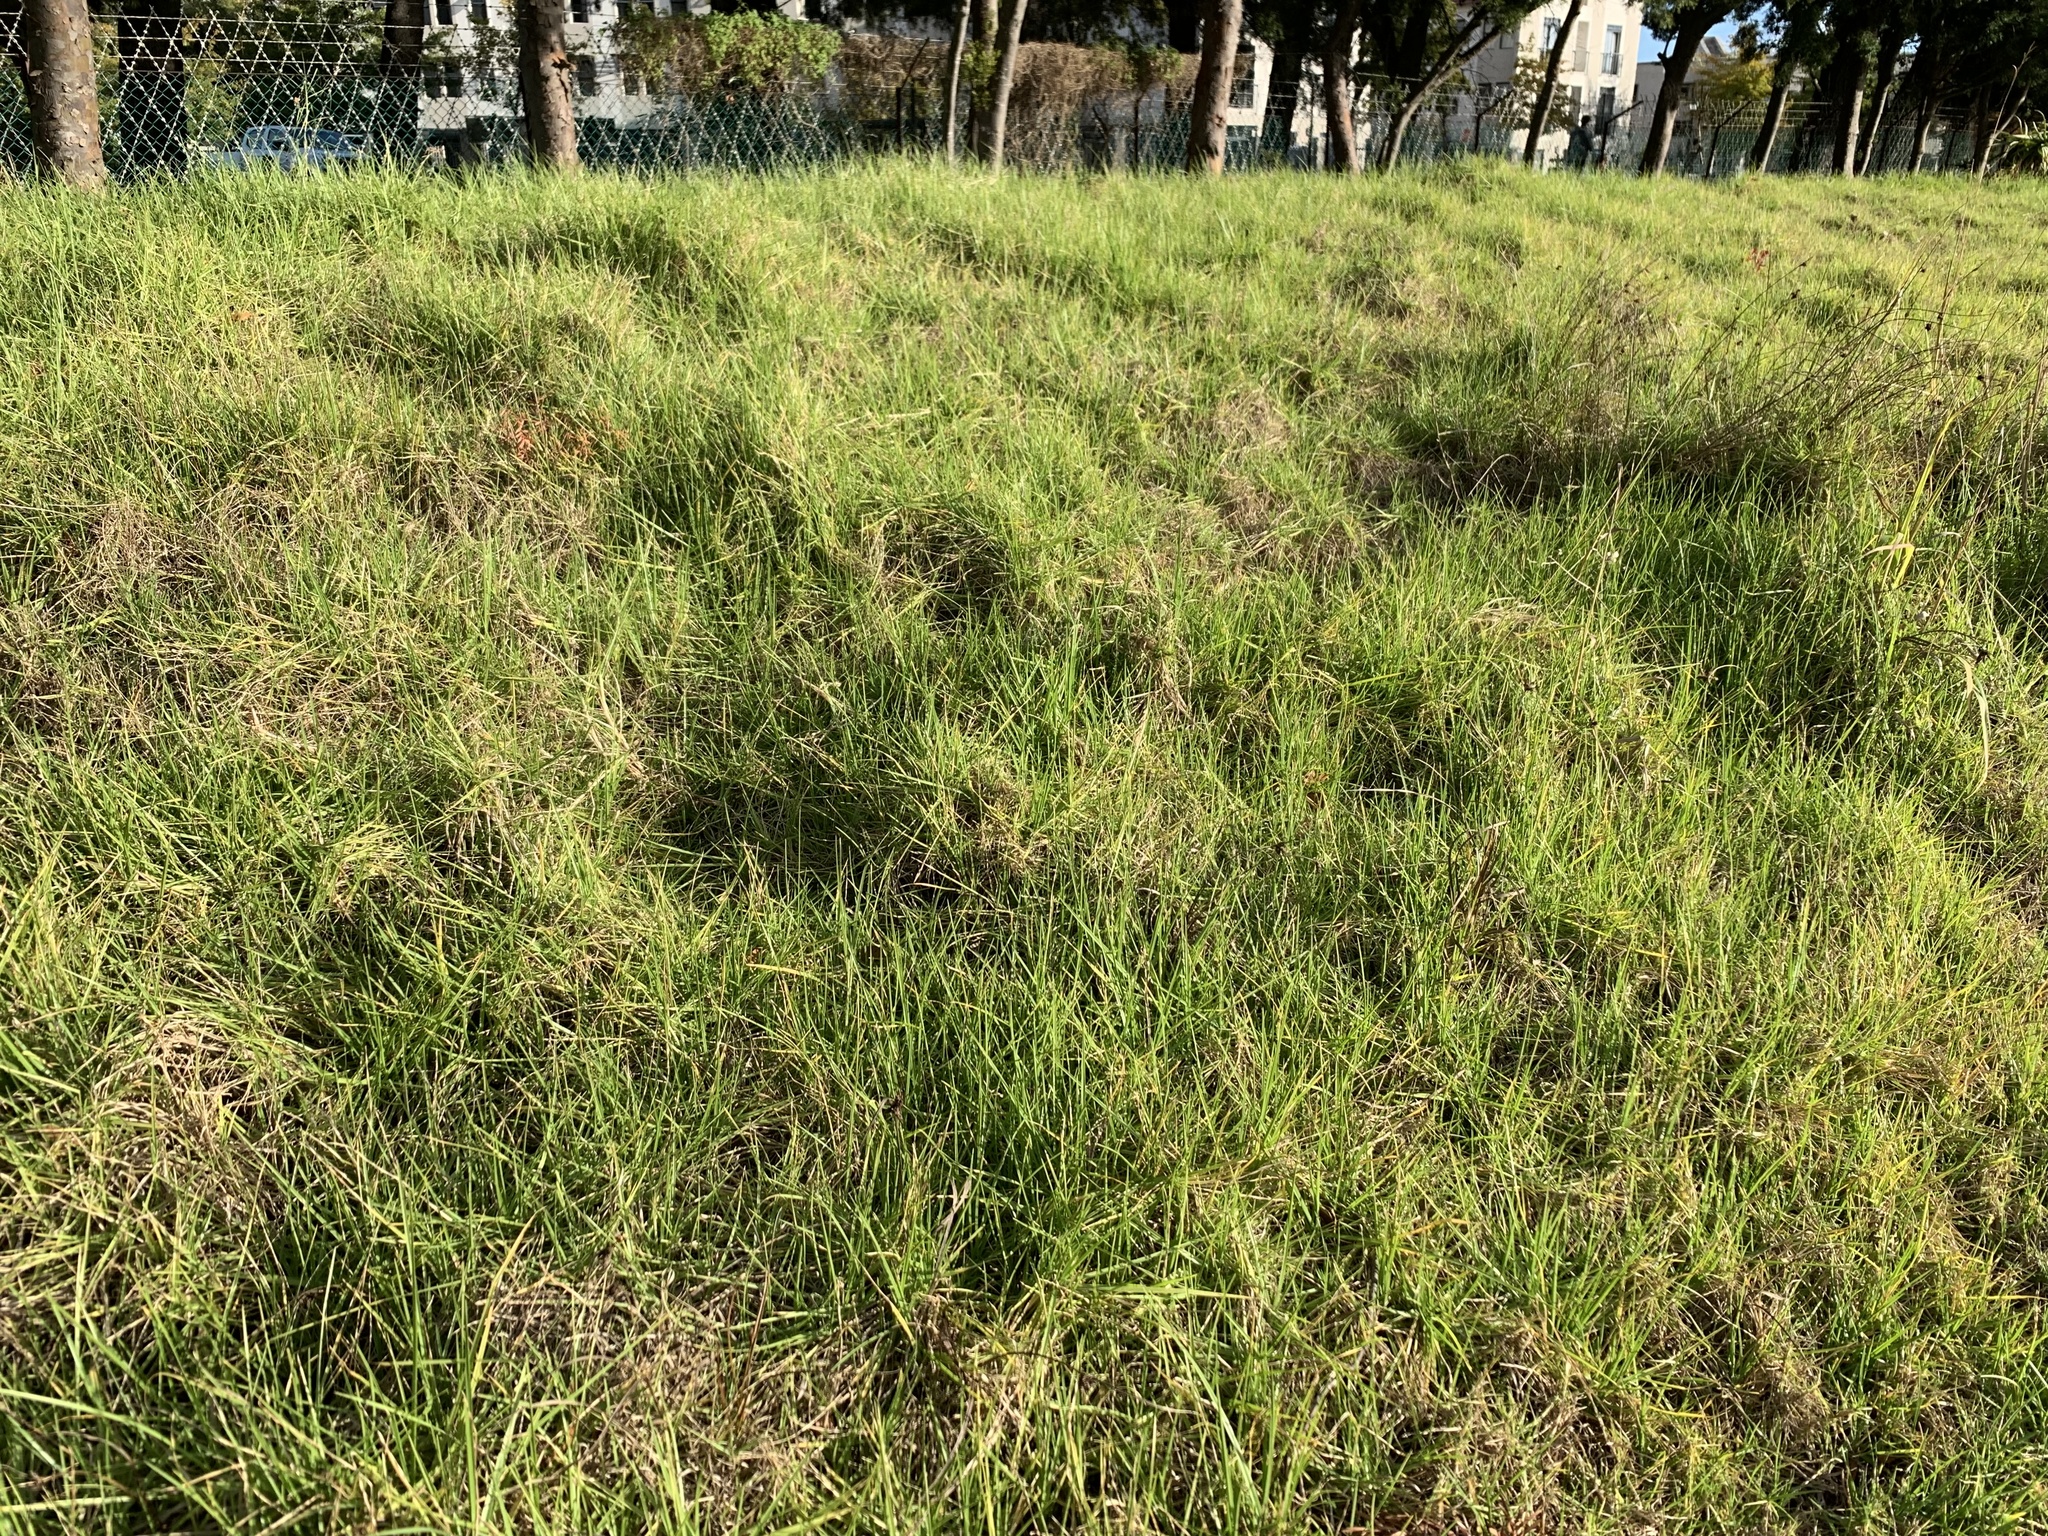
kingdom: Plantae
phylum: Tracheophyta
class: Liliopsida
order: Poales
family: Poaceae
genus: Cenchrus
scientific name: Cenchrus clandestinus
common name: Kikuyugrass
